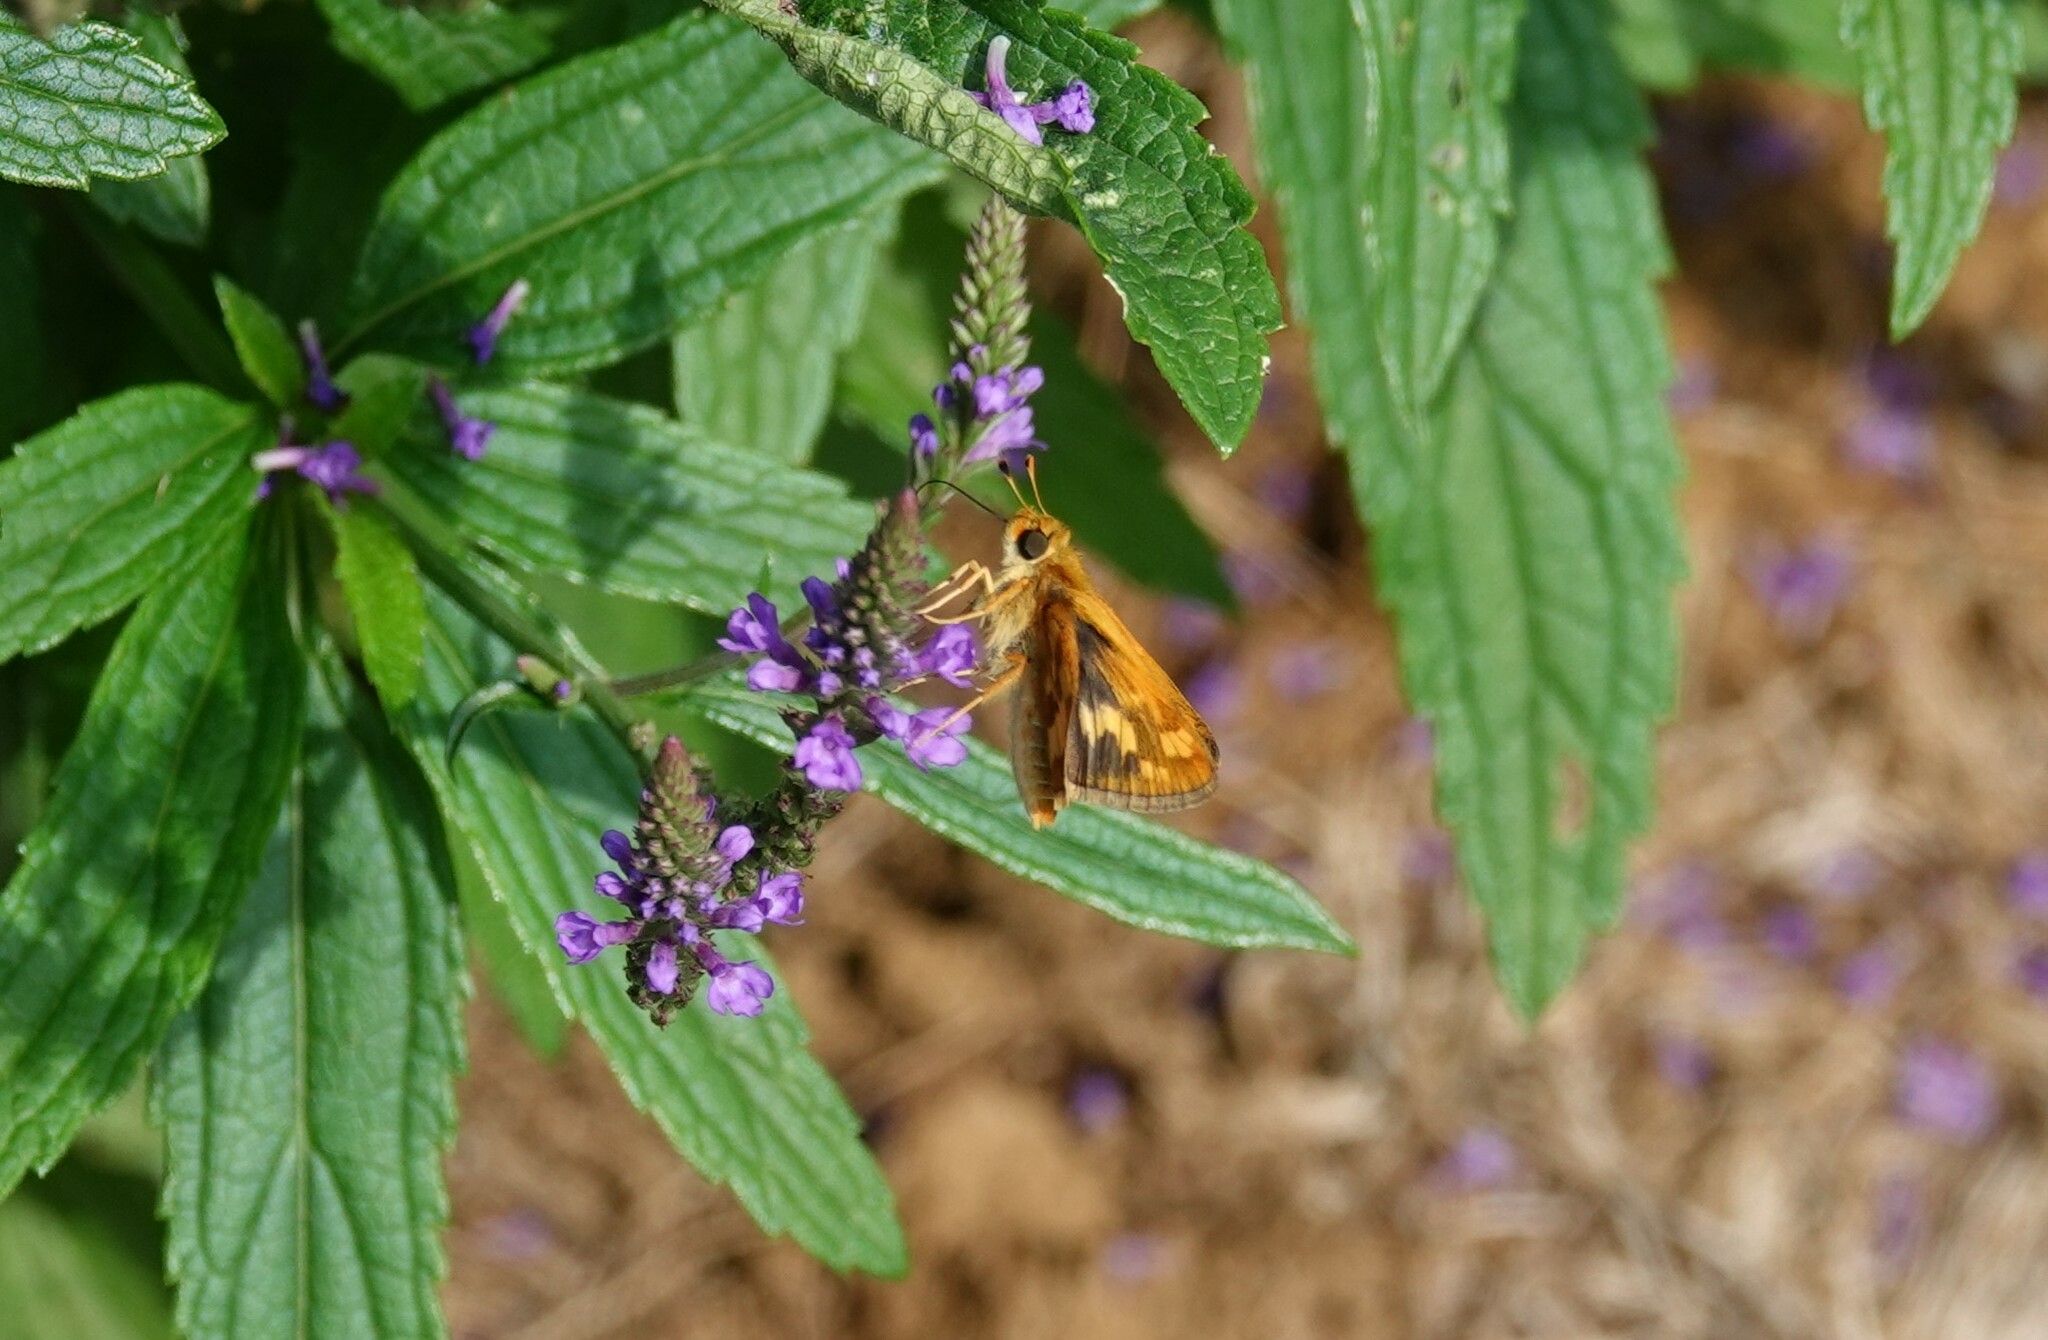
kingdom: Animalia
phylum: Arthropoda
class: Insecta
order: Lepidoptera
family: Hesperiidae
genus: Polites
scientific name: Polites coras
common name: Peck's skipper
